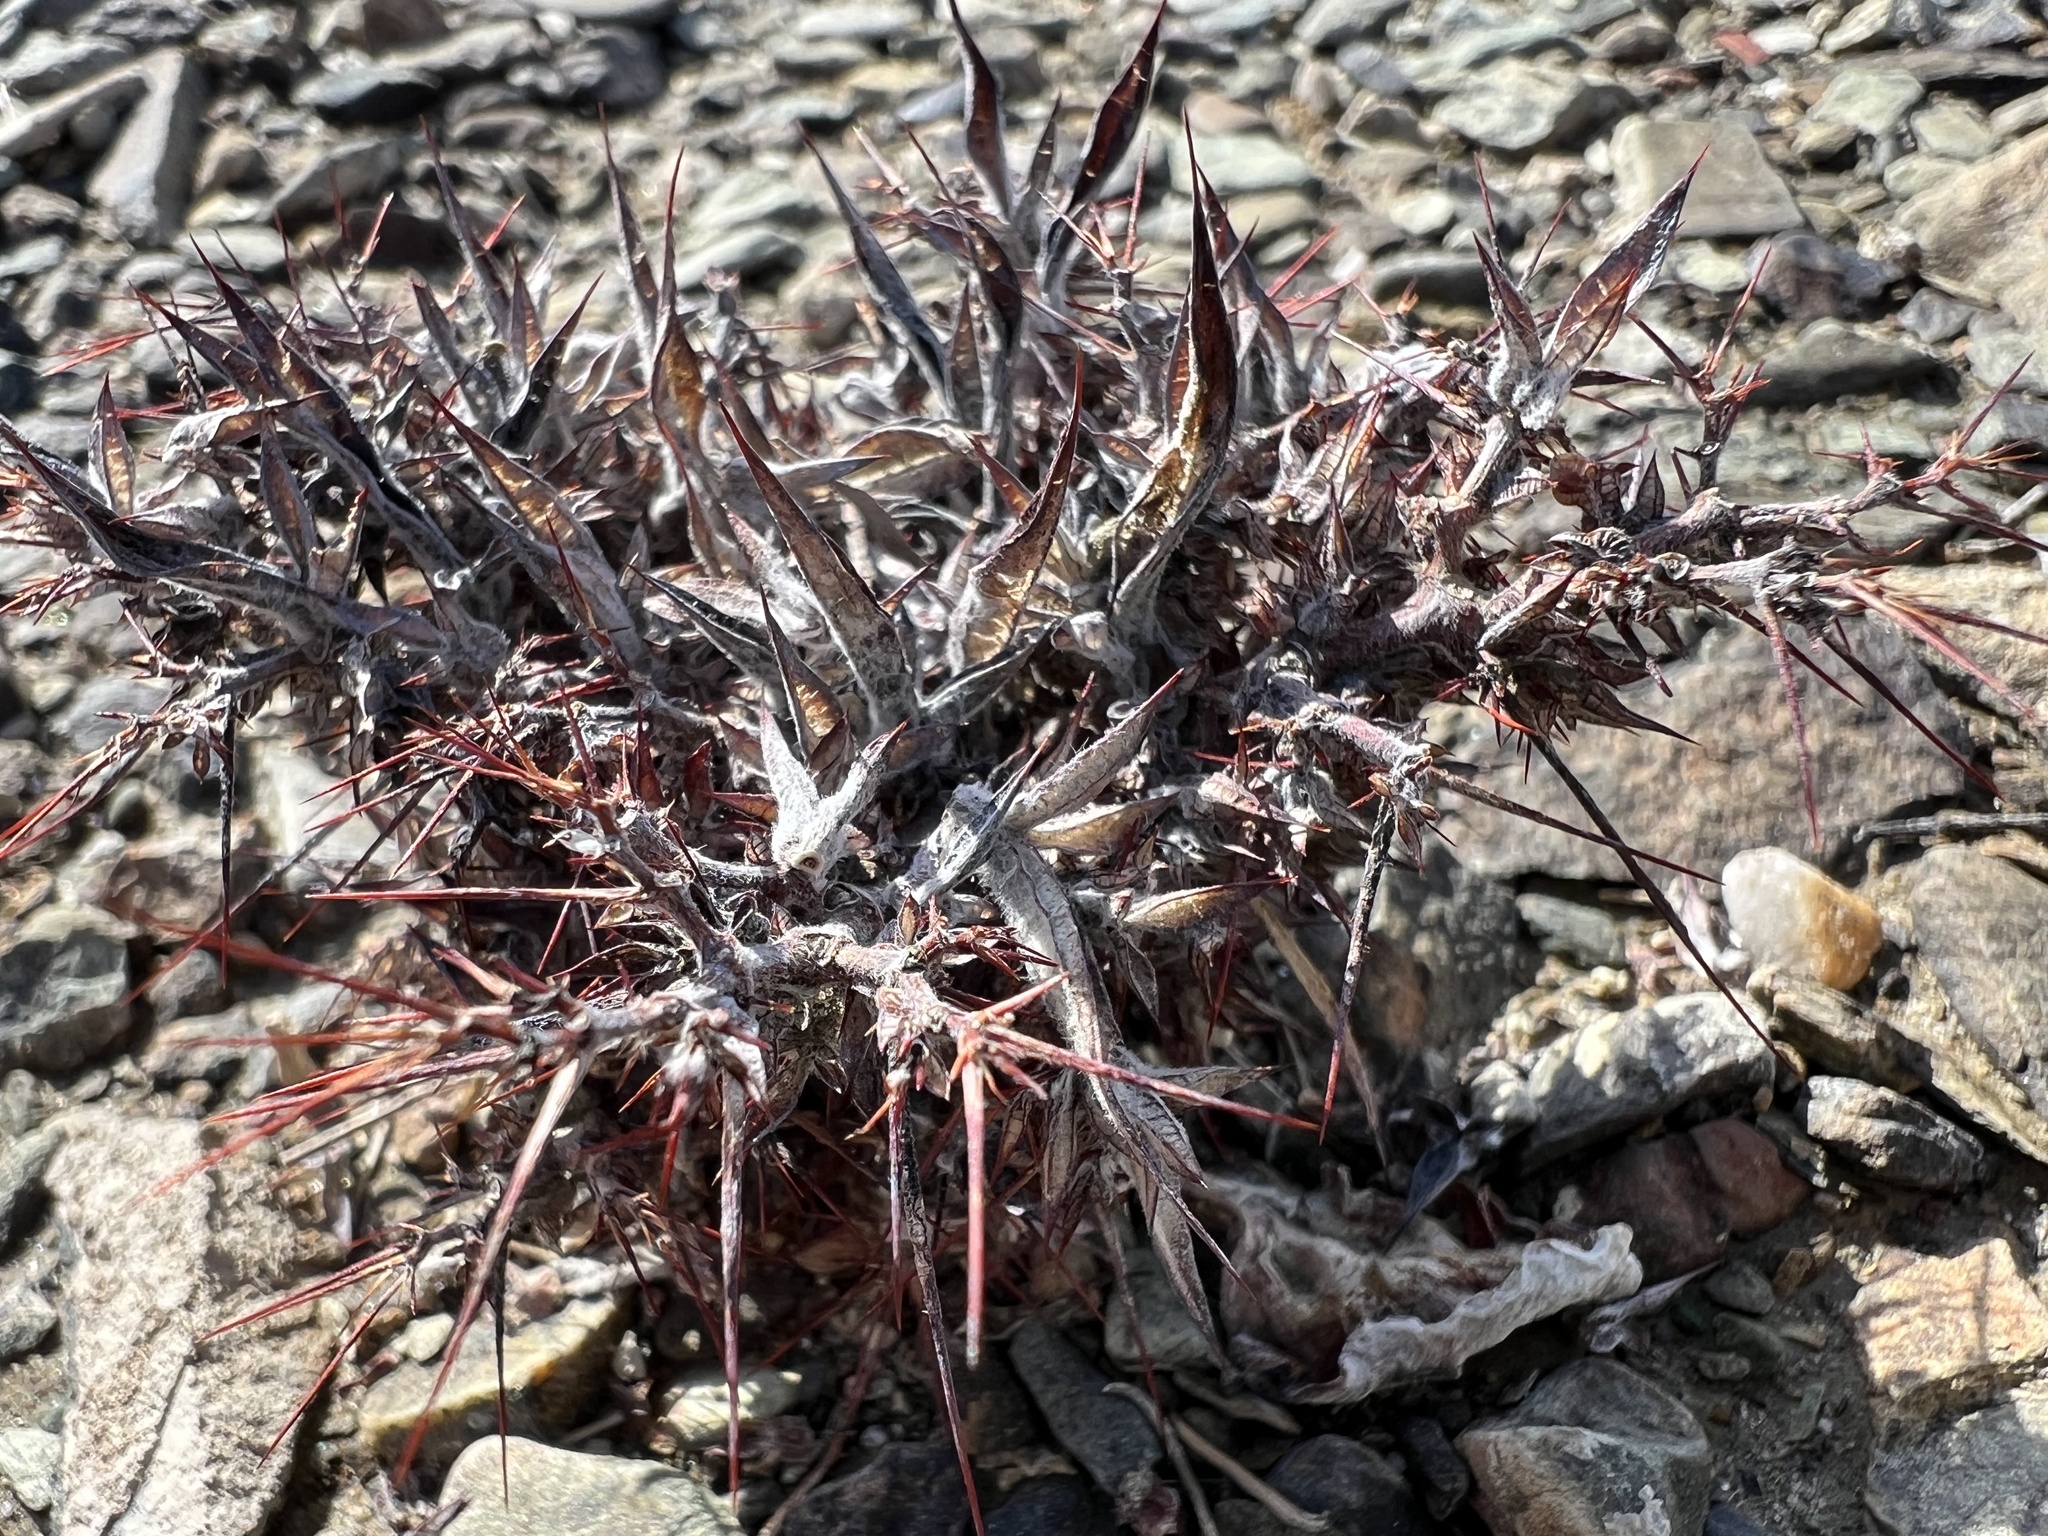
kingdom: Plantae
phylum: Tracheophyta
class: Magnoliopsida
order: Caryophyllales
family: Polygonaceae
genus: Chorizanthe
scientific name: Chorizanthe rigida
